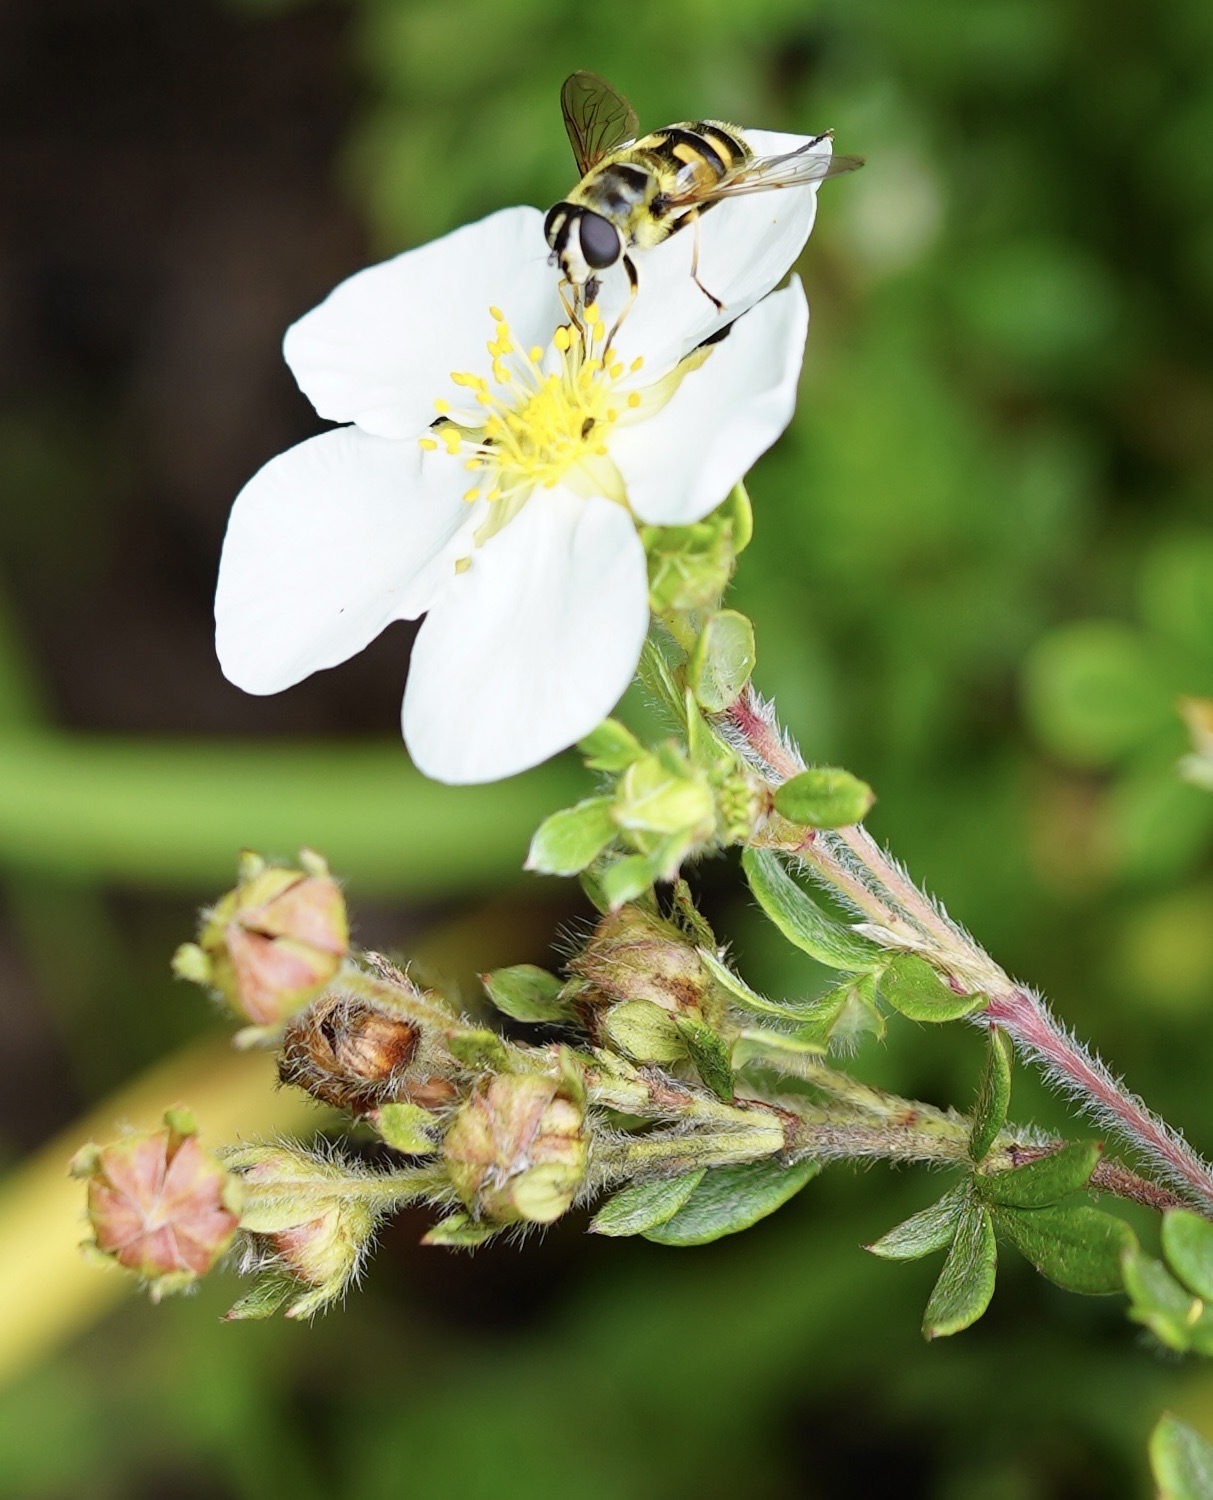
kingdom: Animalia
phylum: Arthropoda
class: Insecta
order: Diptera
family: Syrphidae
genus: Myathropa
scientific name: Myathropa florea
